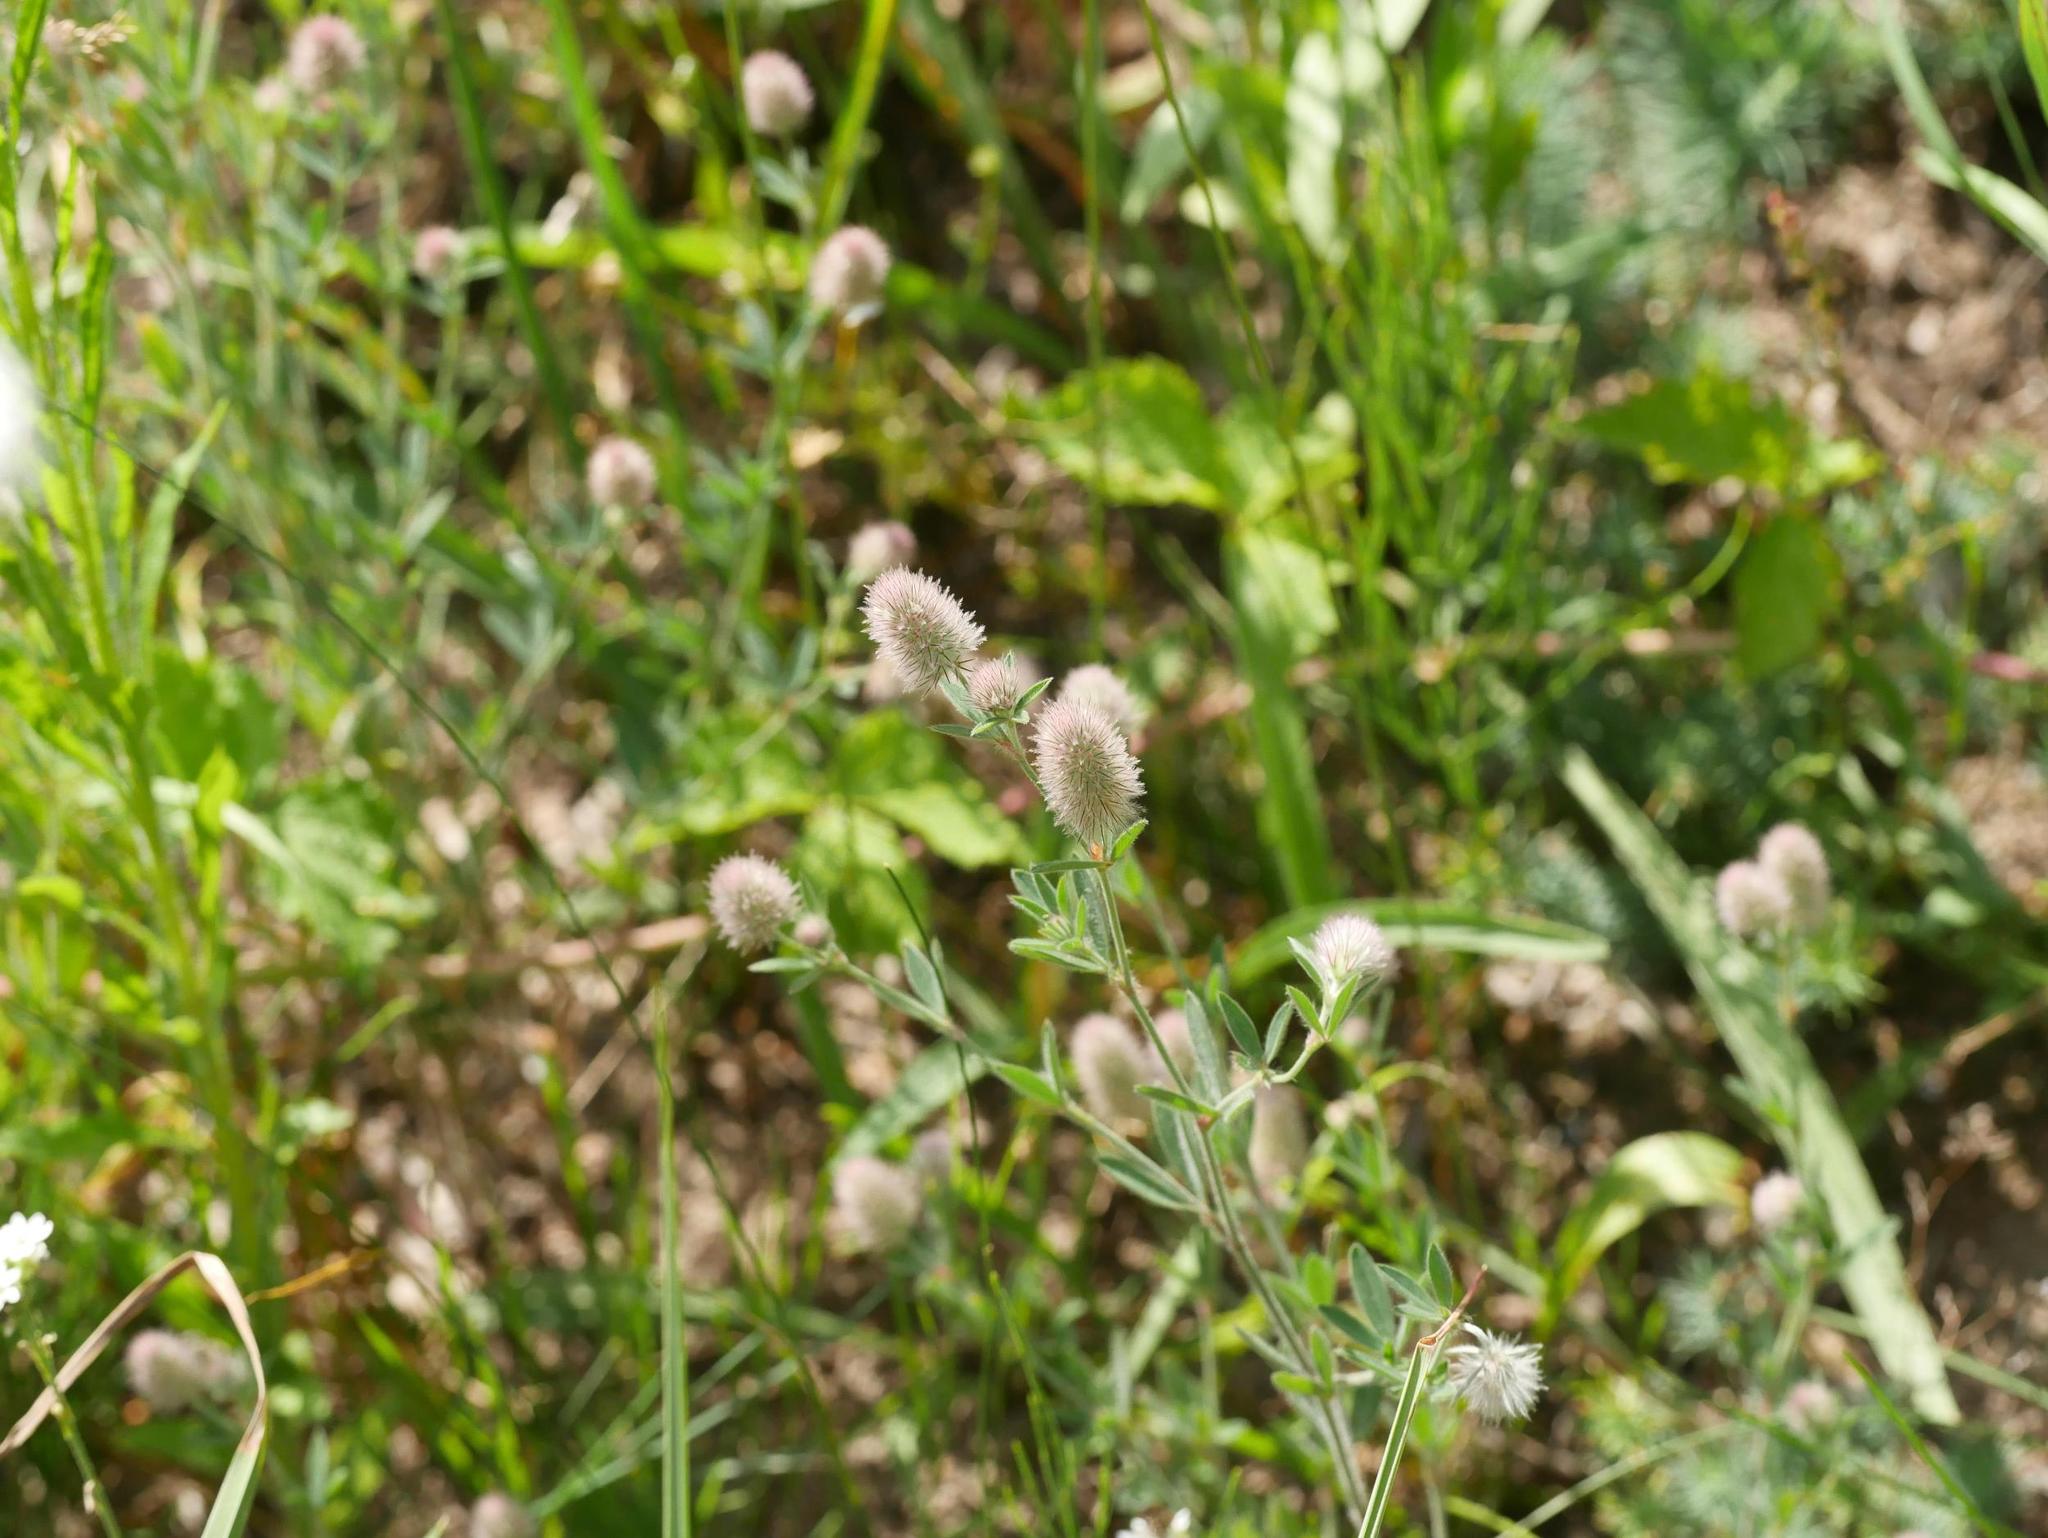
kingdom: Plantae
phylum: Tracheophyta
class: Magnoliopsida
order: Fabales
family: Fabaceae
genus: Trifolium
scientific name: Trifolium arvense
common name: Hare's-foot clover
